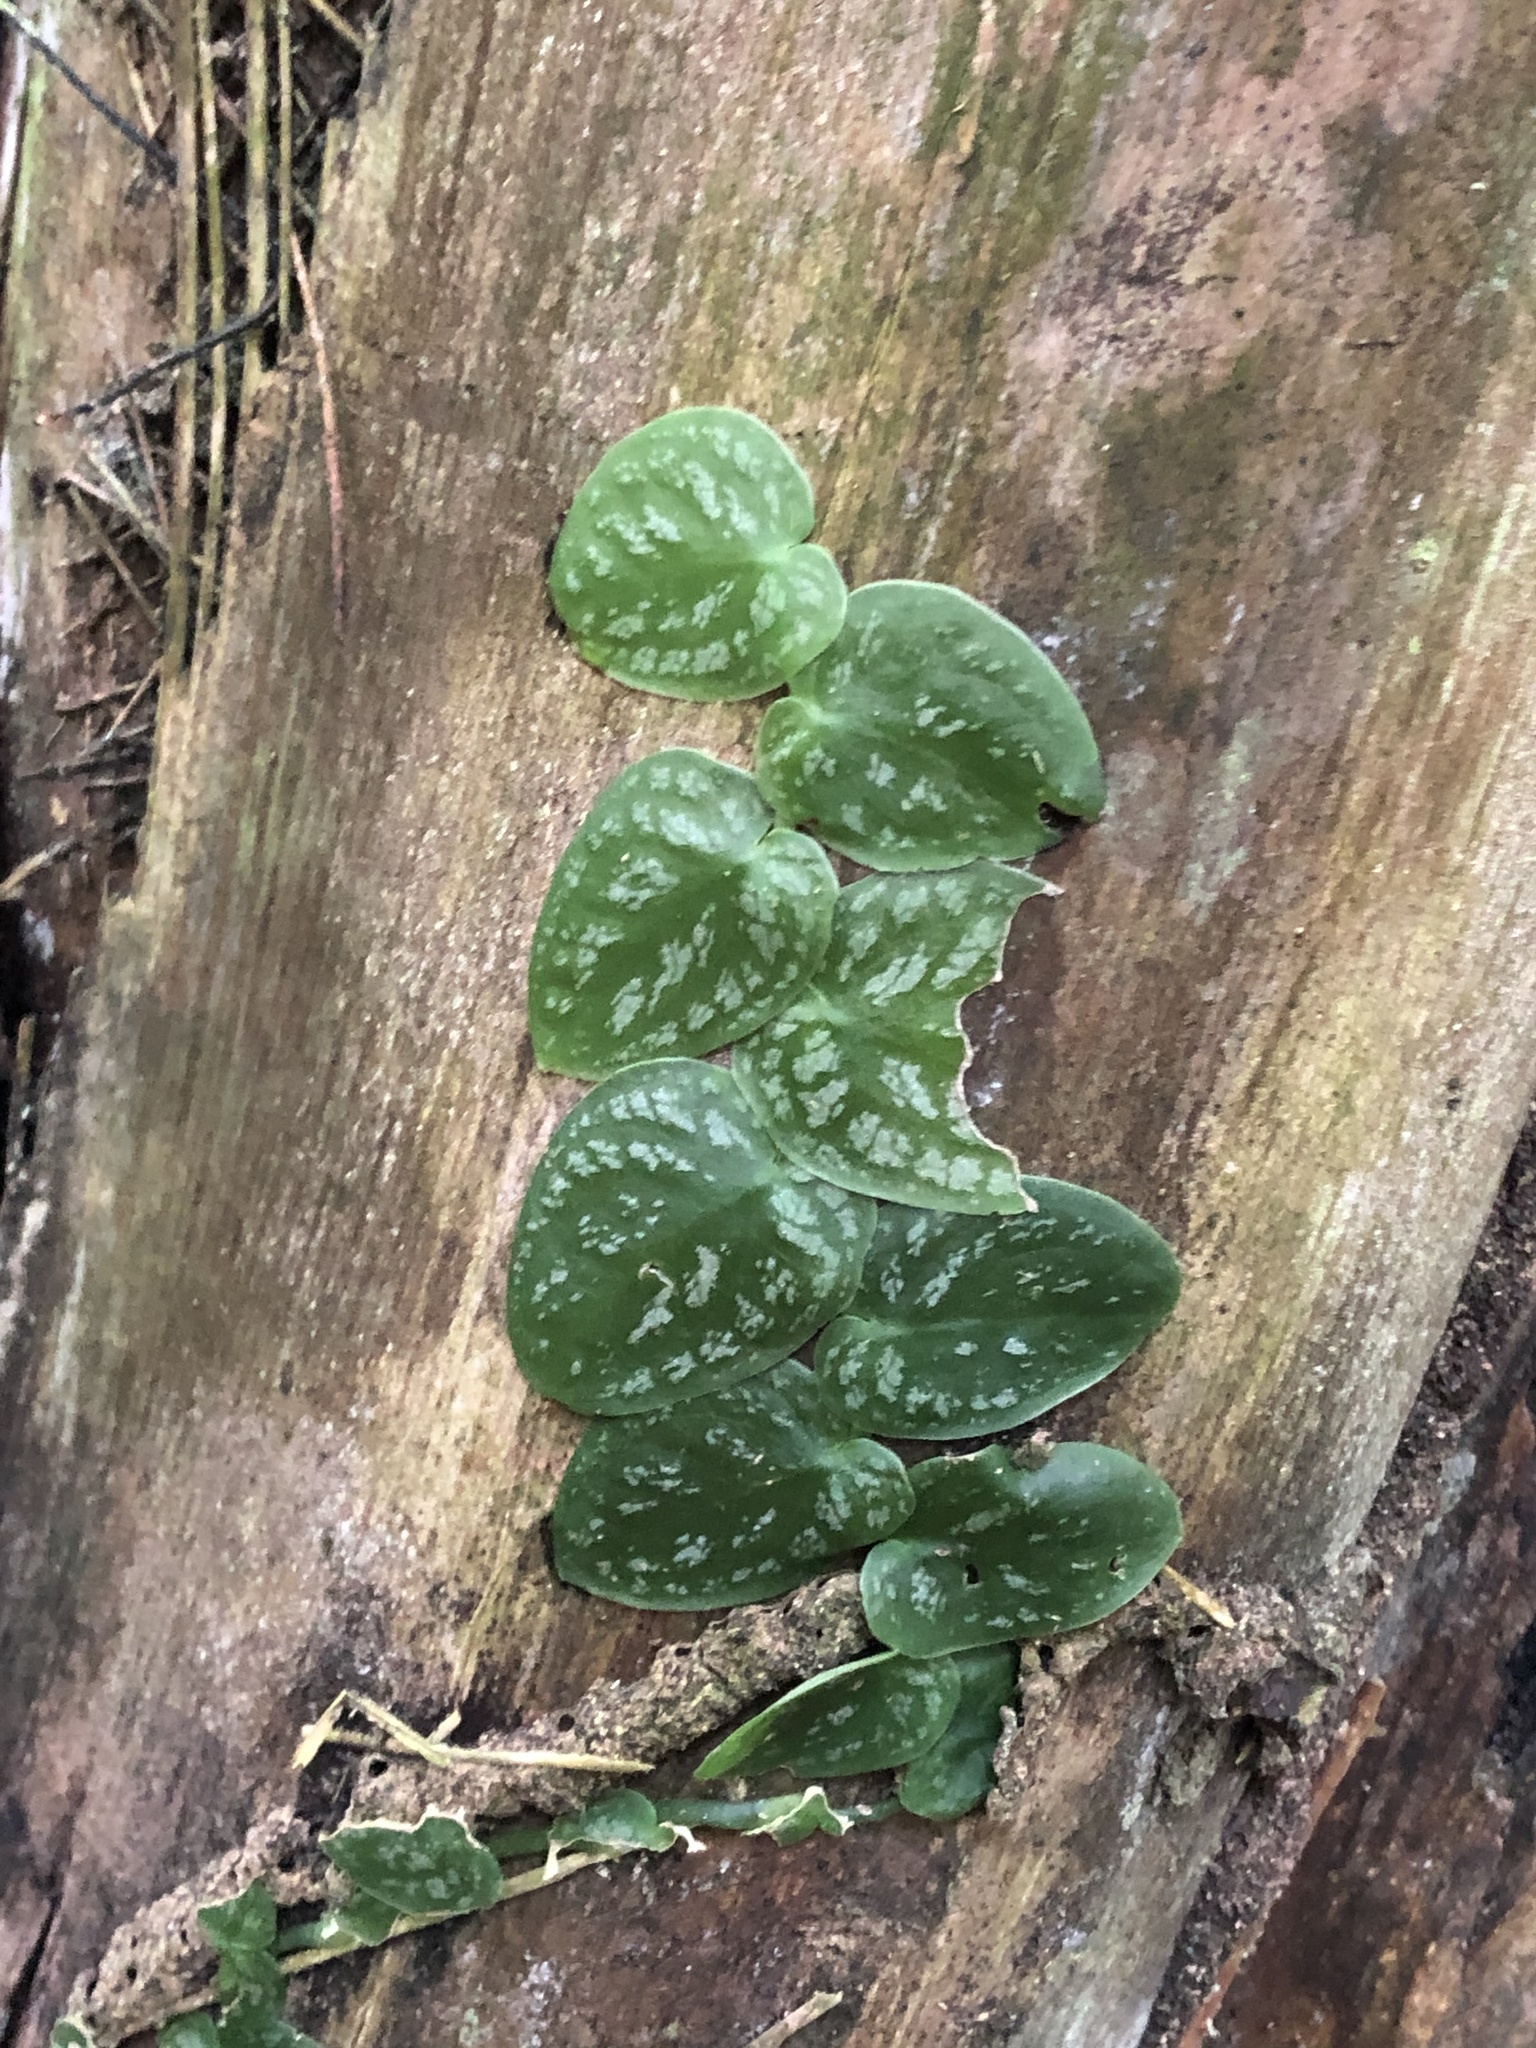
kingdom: Plantae
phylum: Tracheophyta
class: Liliopsida
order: Alismatales
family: Araceae
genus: Monstera
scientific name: Monstera dubia
